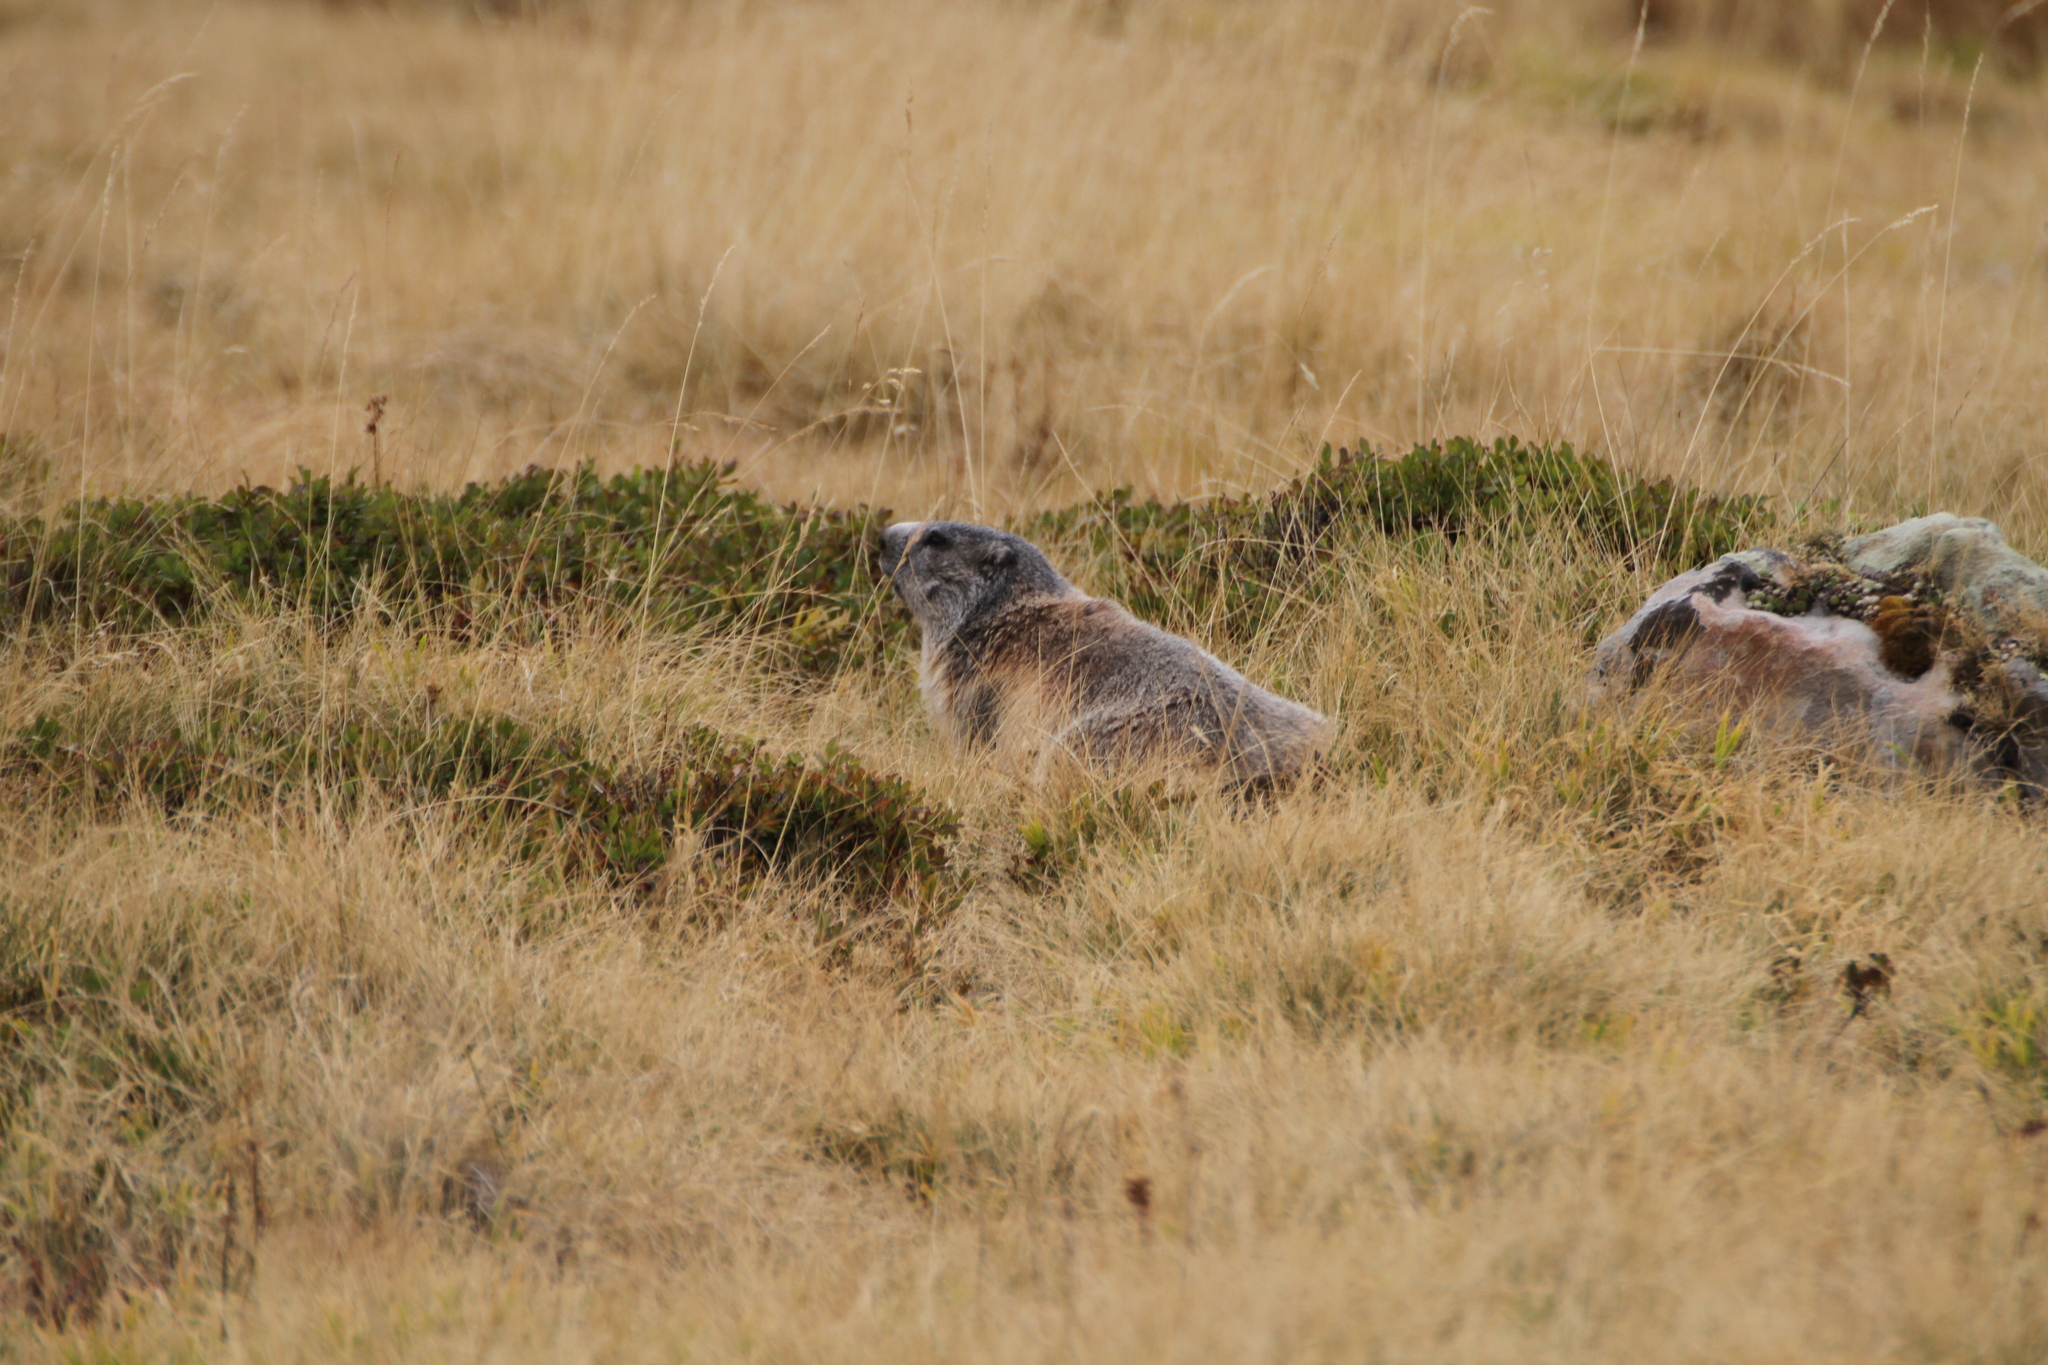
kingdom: Animalia
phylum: Chordata
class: Mammalia
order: Rodentia
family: Sciuridae
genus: Marmota
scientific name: Marmota marmota
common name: Alpine marmot
